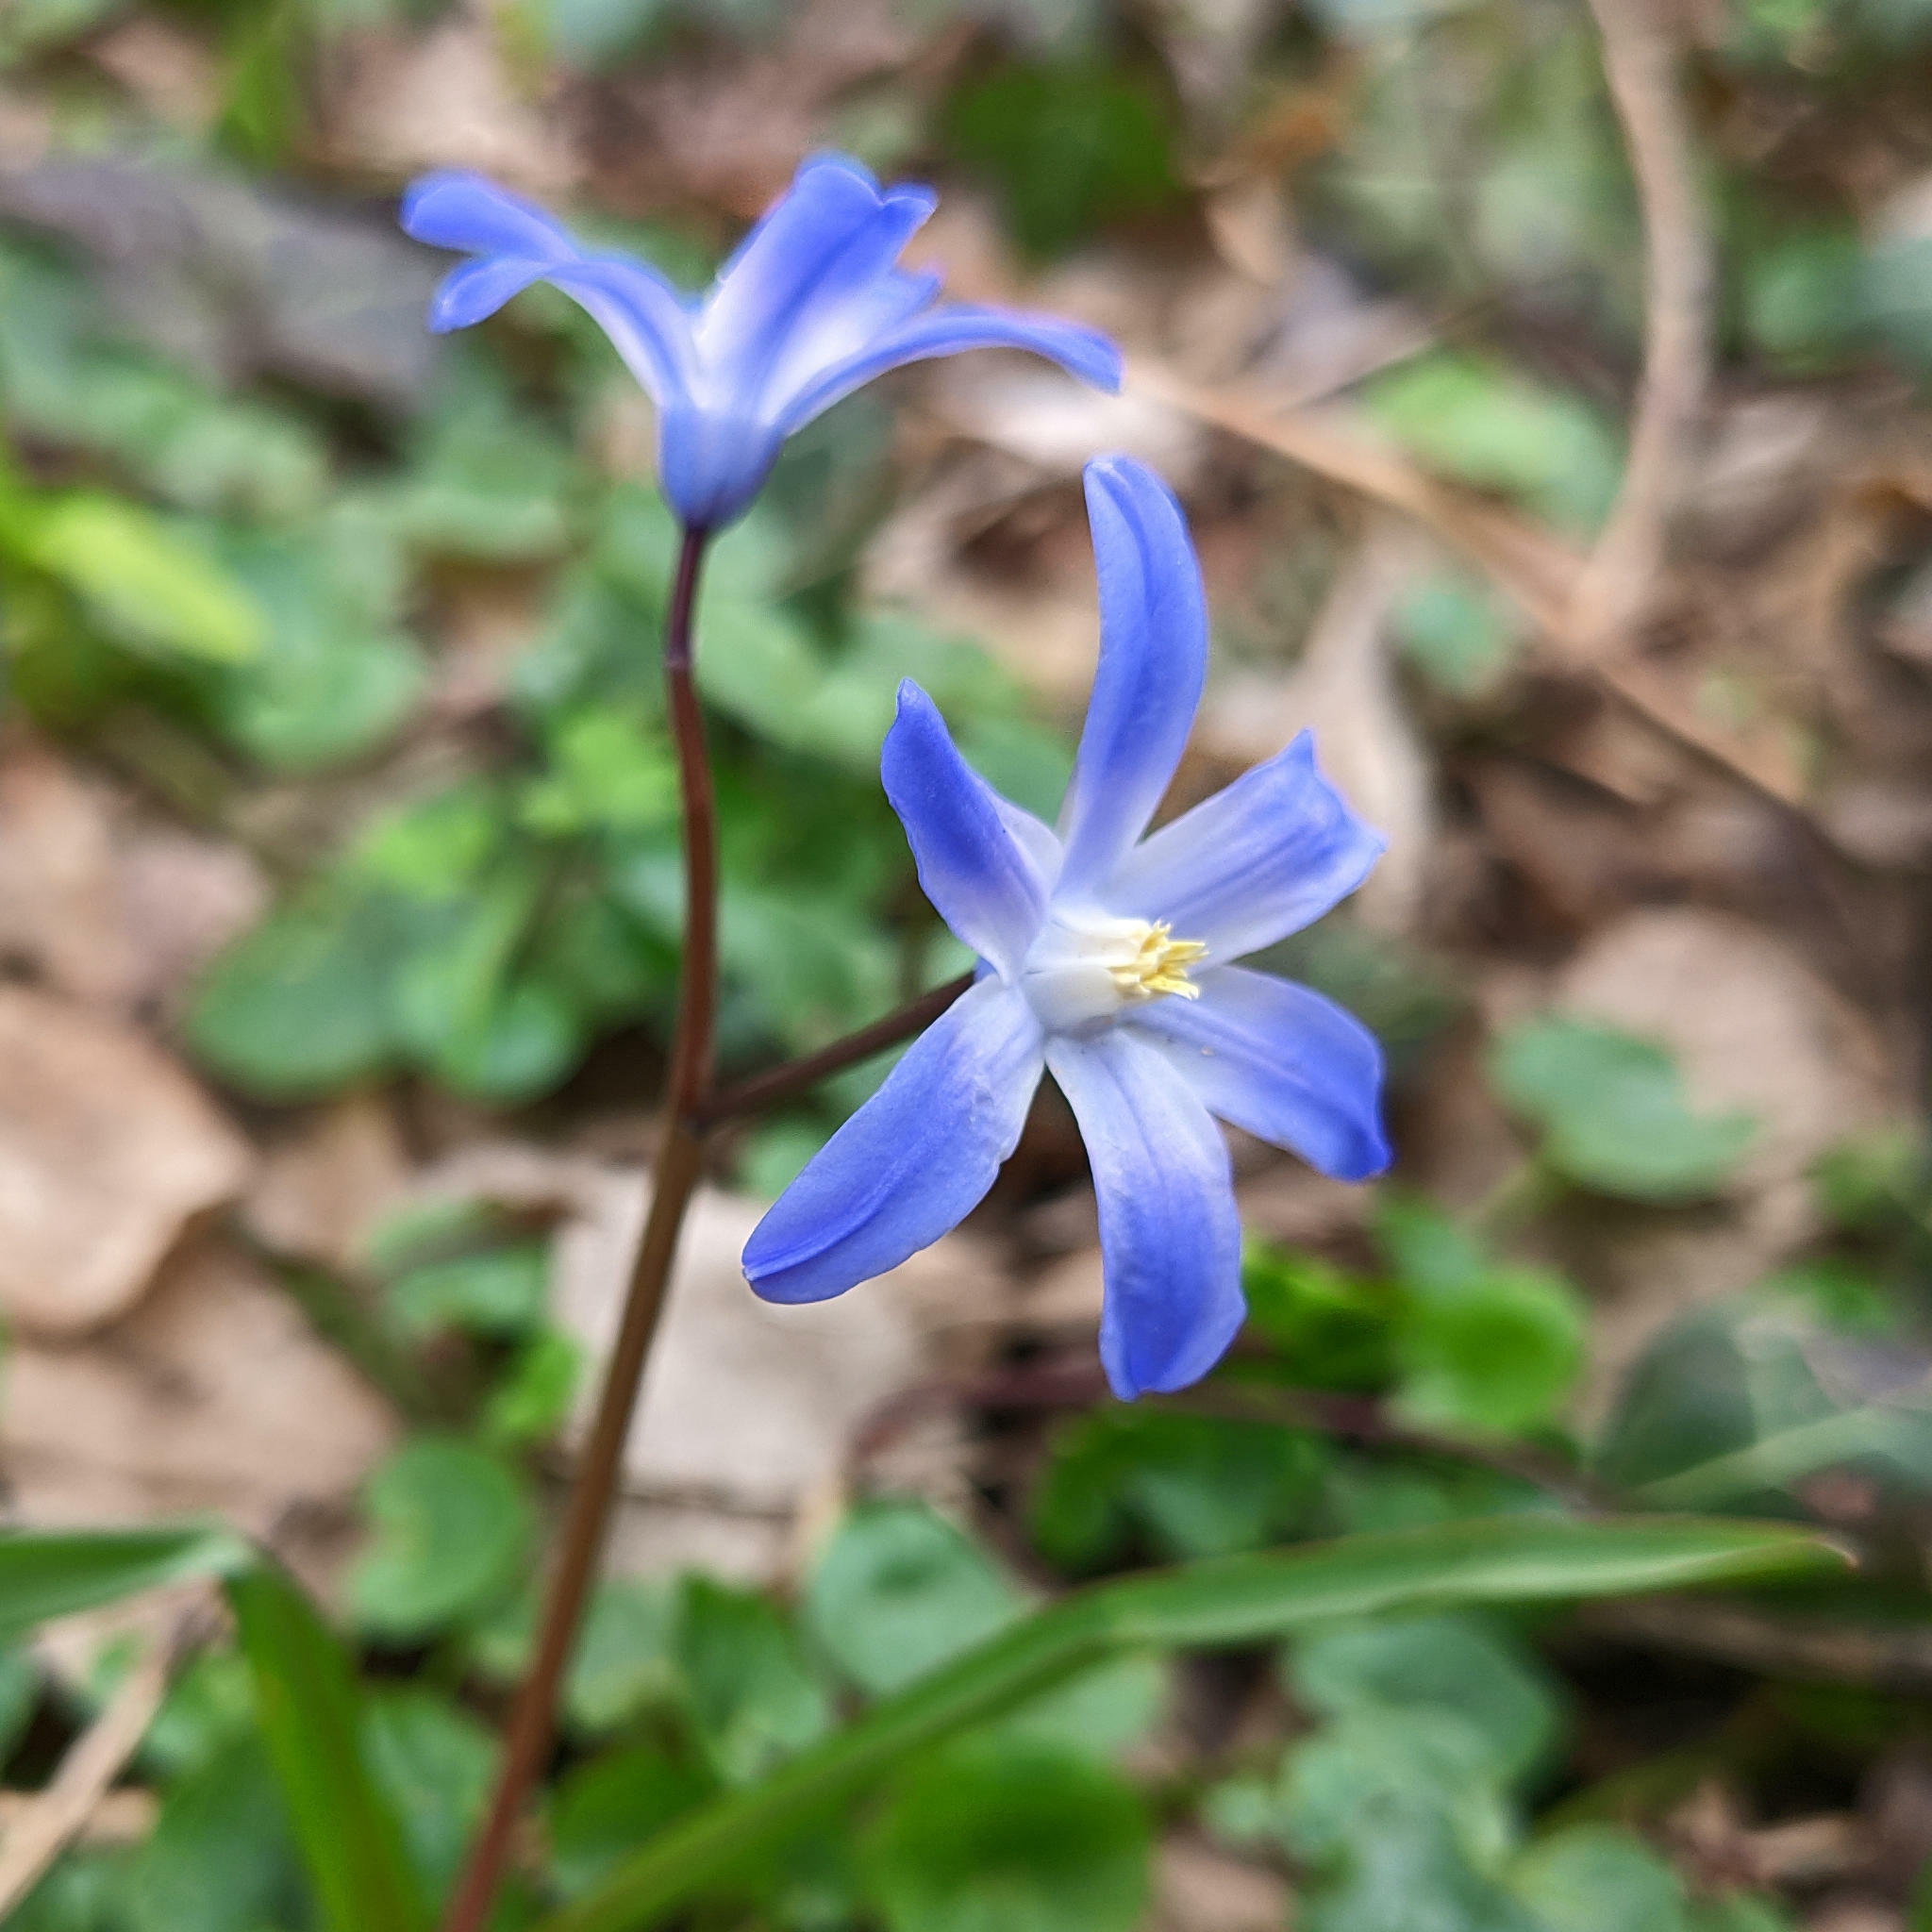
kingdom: Plantae
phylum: Tracheophyta
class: Liliopsida
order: Asparagales
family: Asparagaceae
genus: Scilla
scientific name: Scilla luciliae
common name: Boissier's glory-of-the-snow
